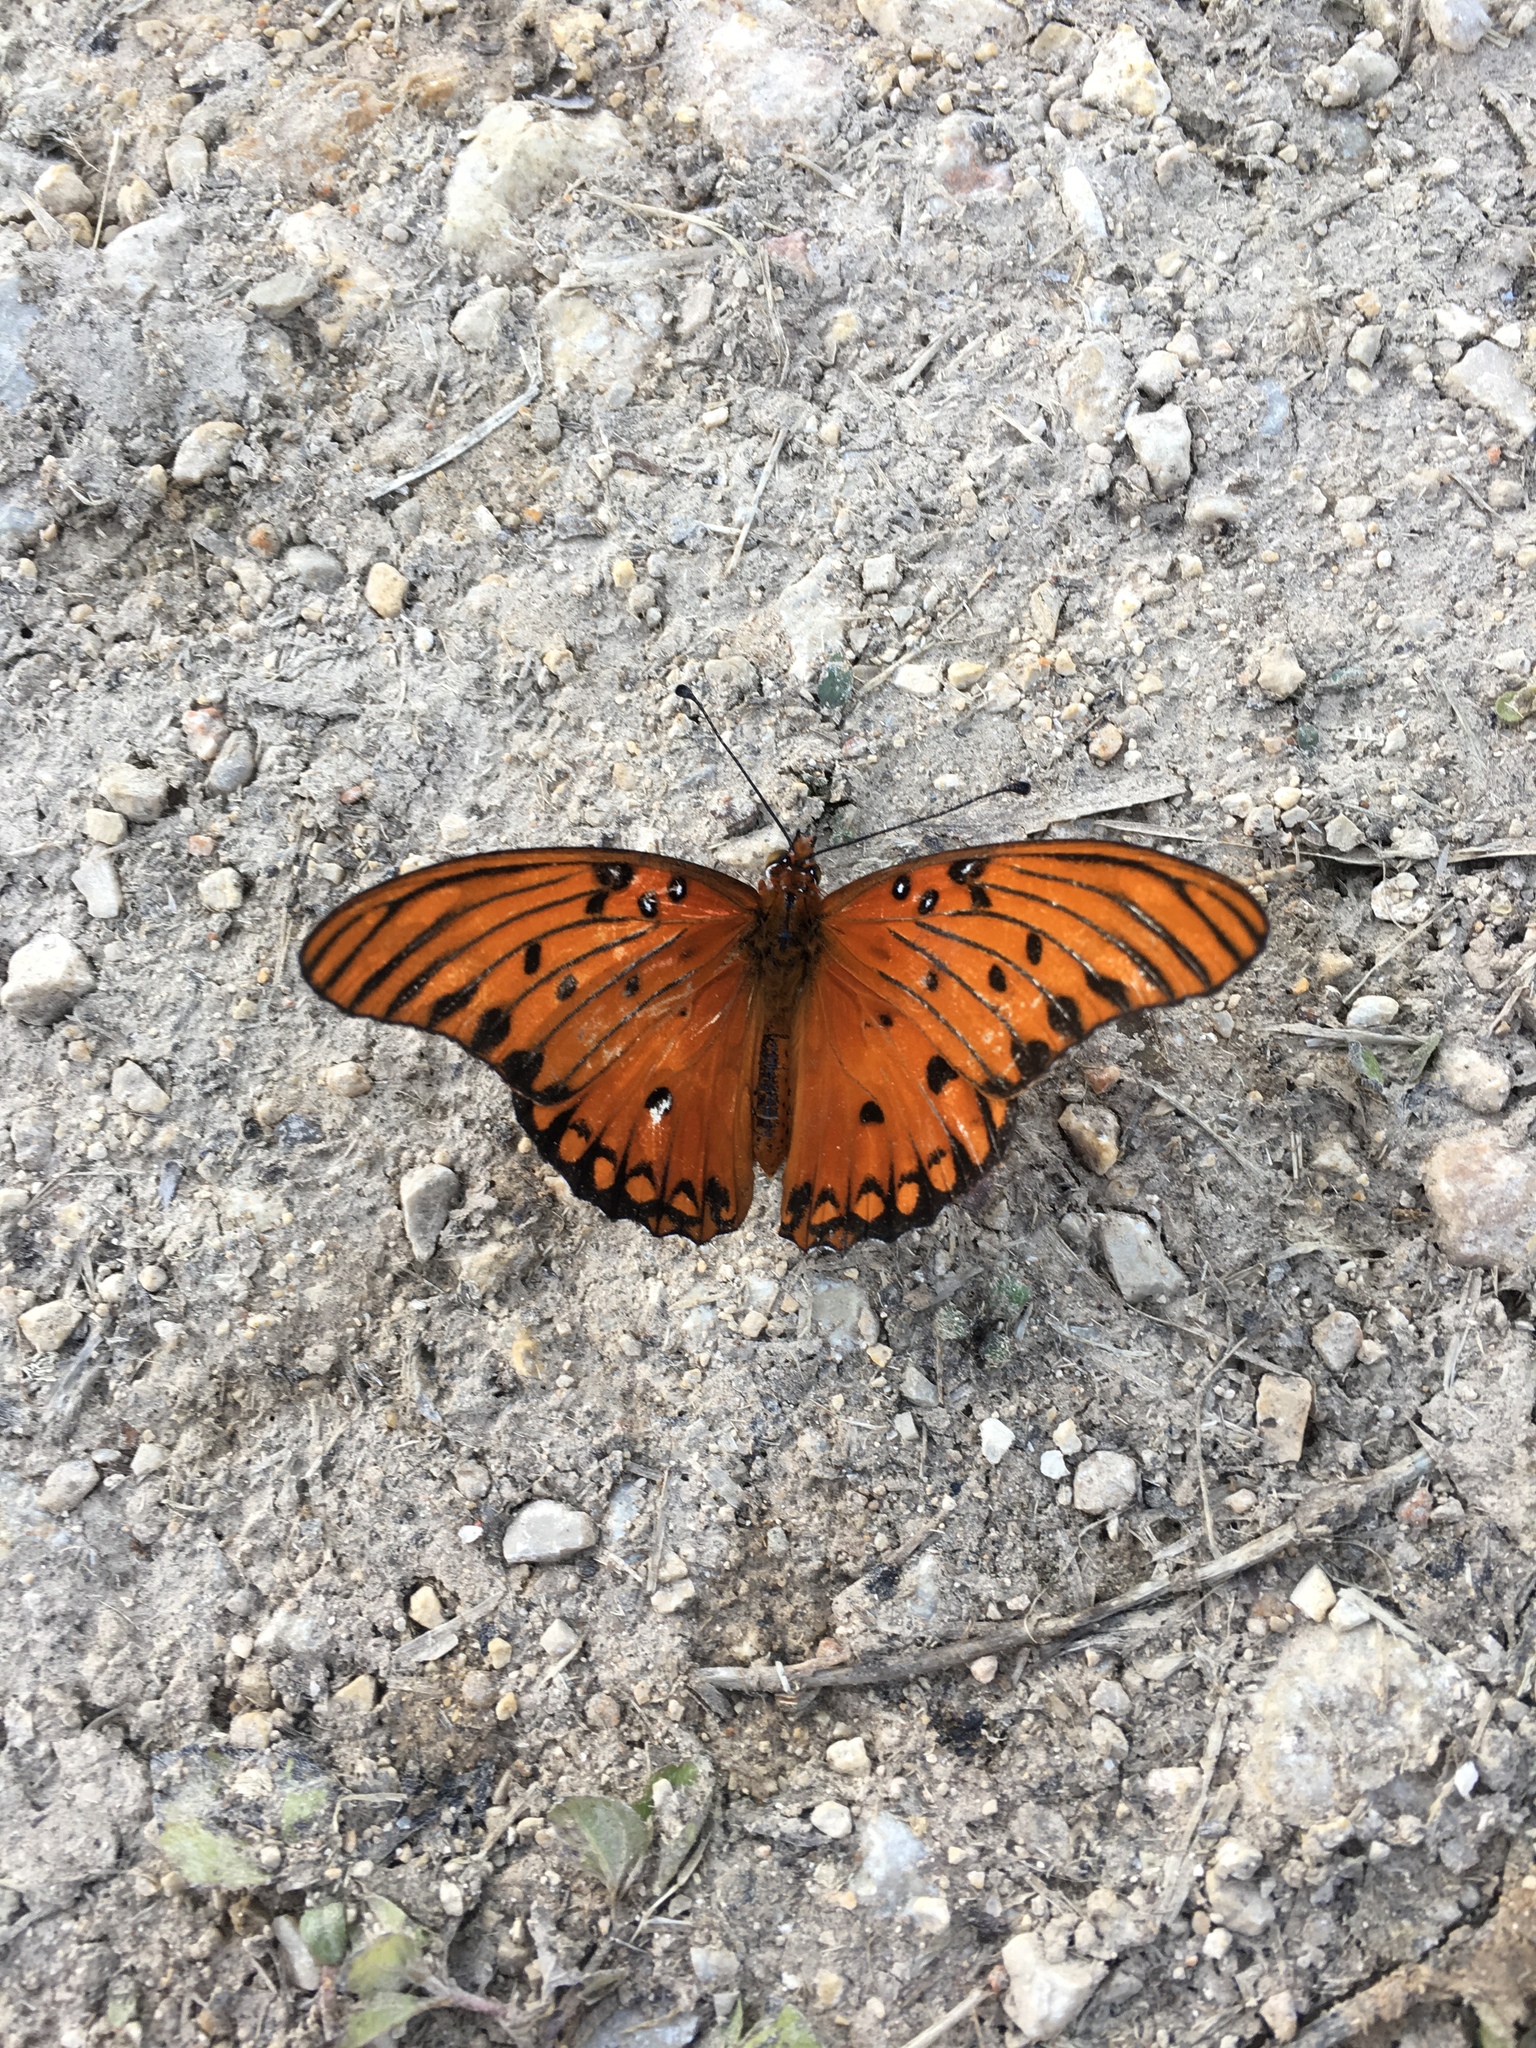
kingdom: Animalia
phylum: Arthropoda
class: Insecta
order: Lepidoptera
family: Nymphalidae
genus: Dione
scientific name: Dione vanillae
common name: Gulf fritillary
